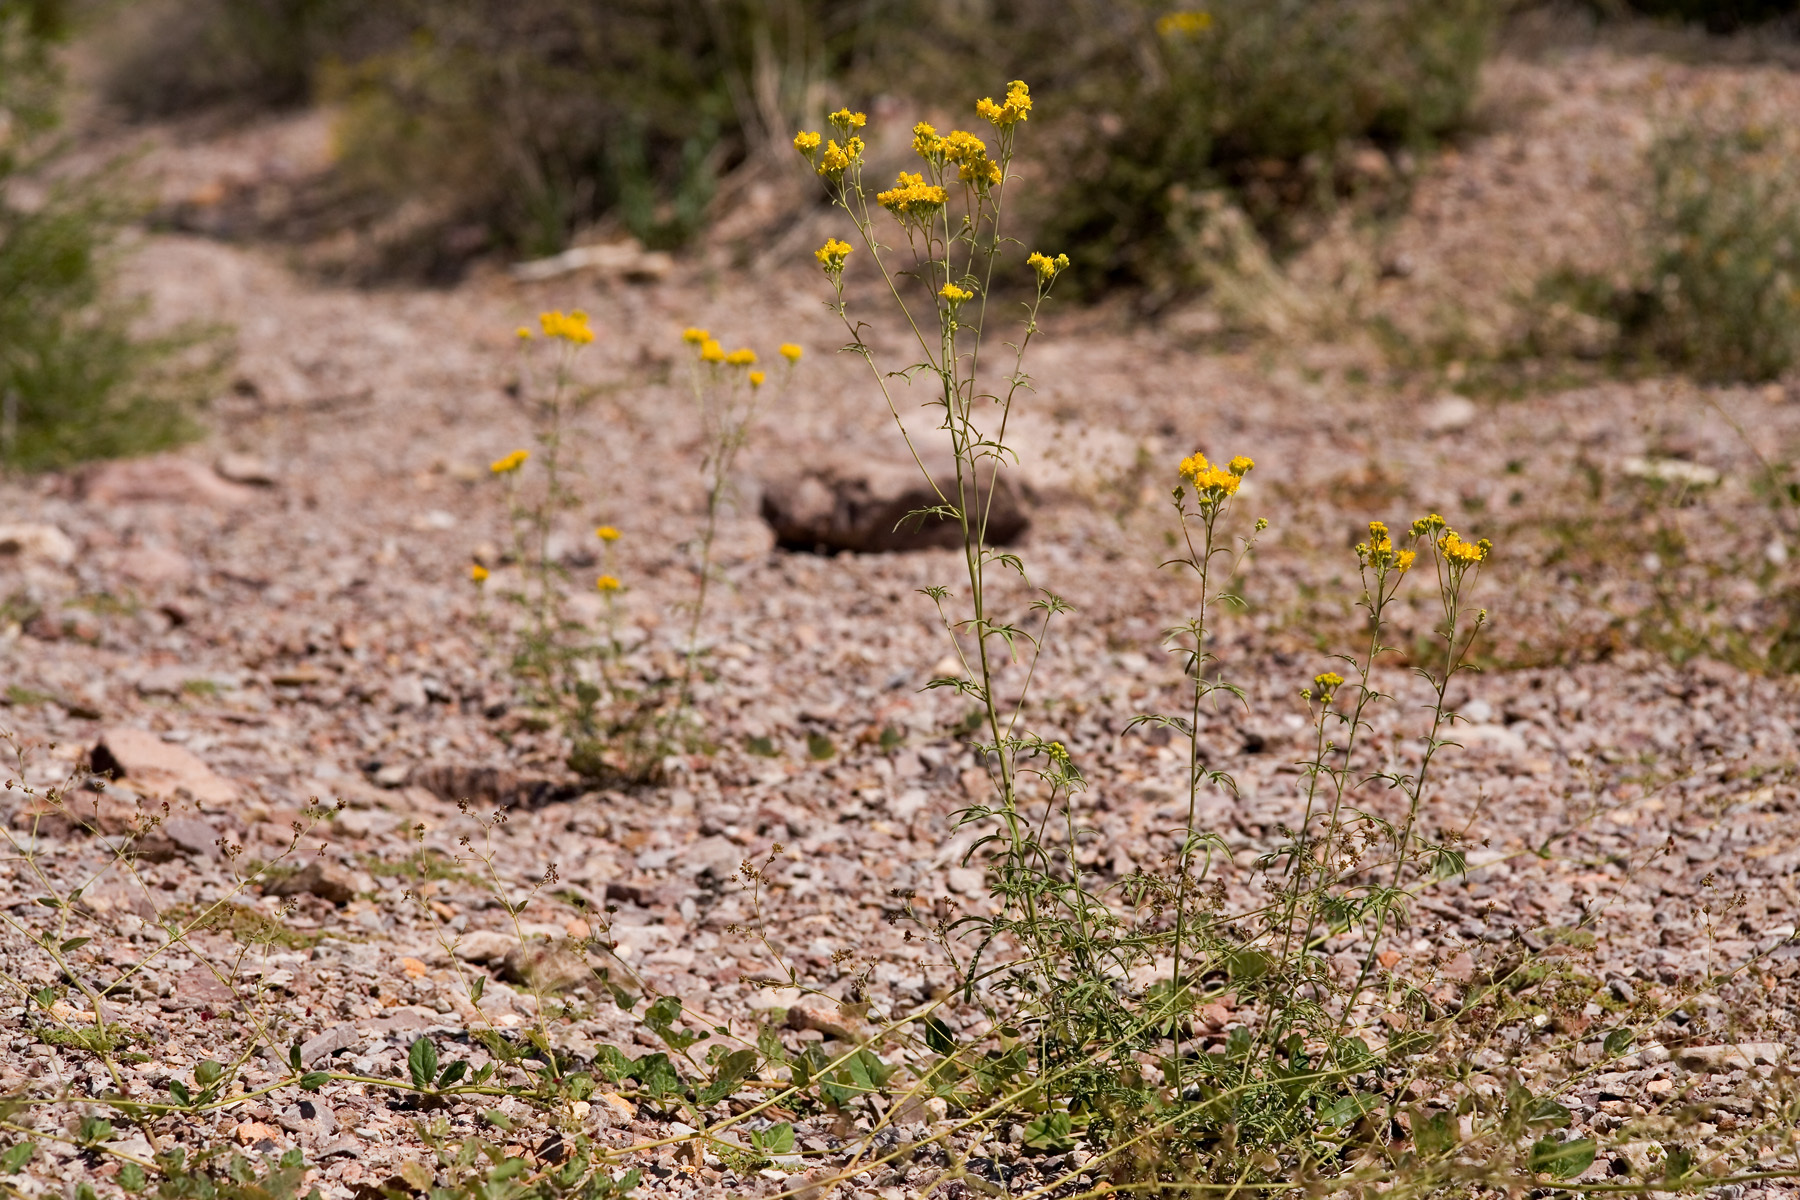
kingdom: Plantae
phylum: Tracheophyta
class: Magnoliopsida
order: Asterales
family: Asteraceae
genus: Hymenothrix
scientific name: Hymenothrix wislizeni
